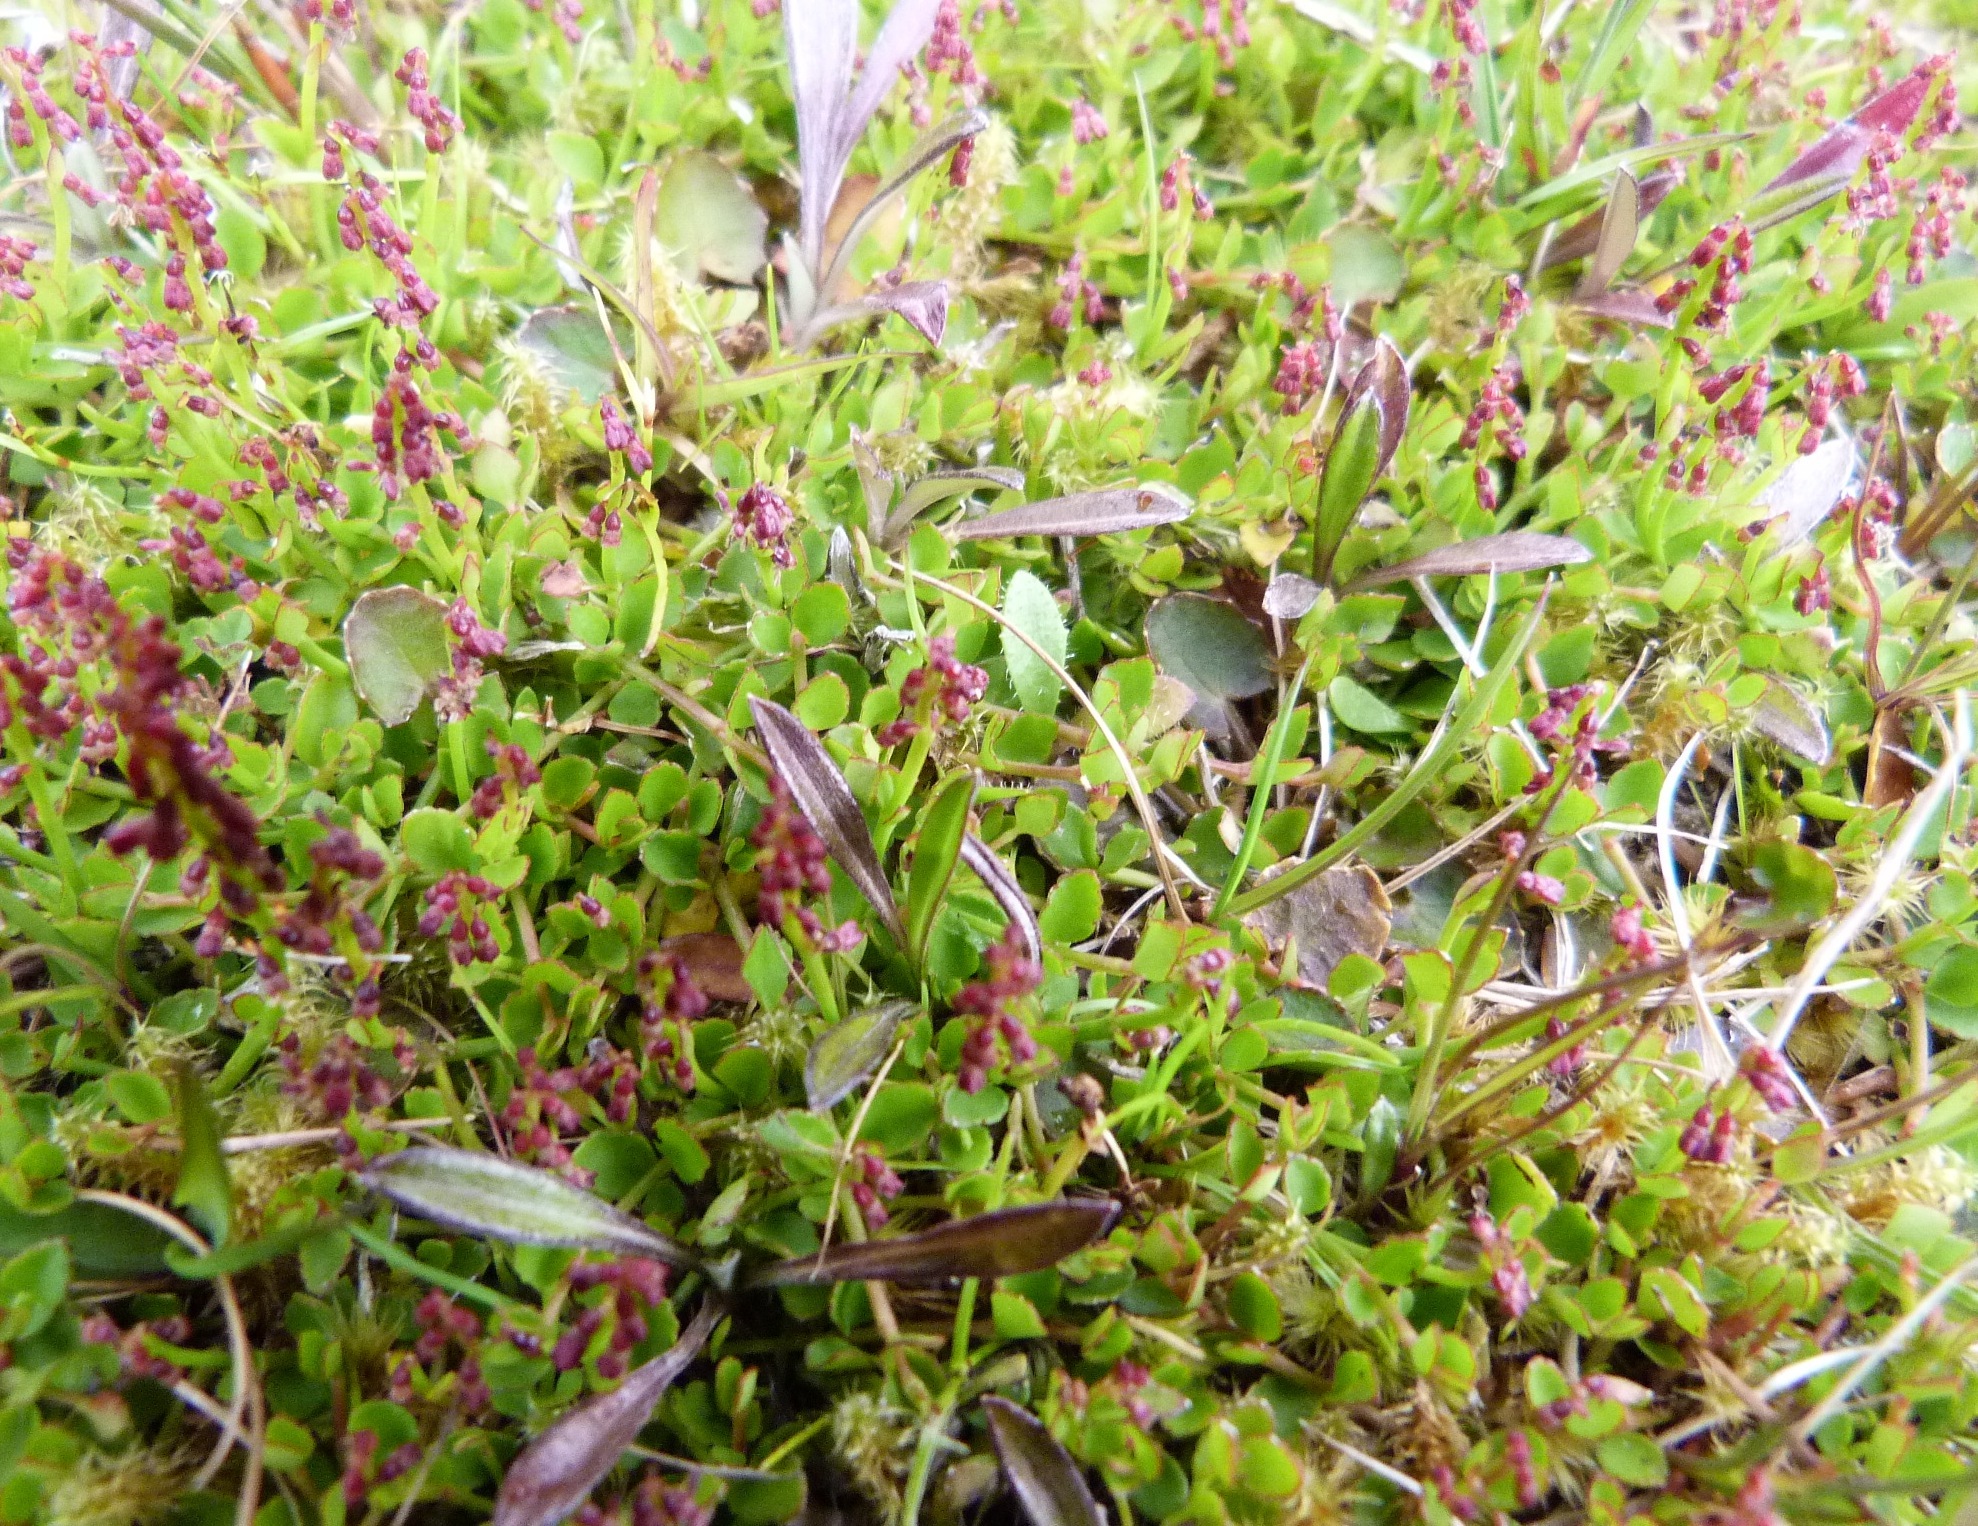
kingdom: Plantae
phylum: Tracheophyta
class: Magnoliopsida
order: Saxifragales
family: Haloragaceae
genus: Gonocarpus
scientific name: Gonocarpus micranthus
